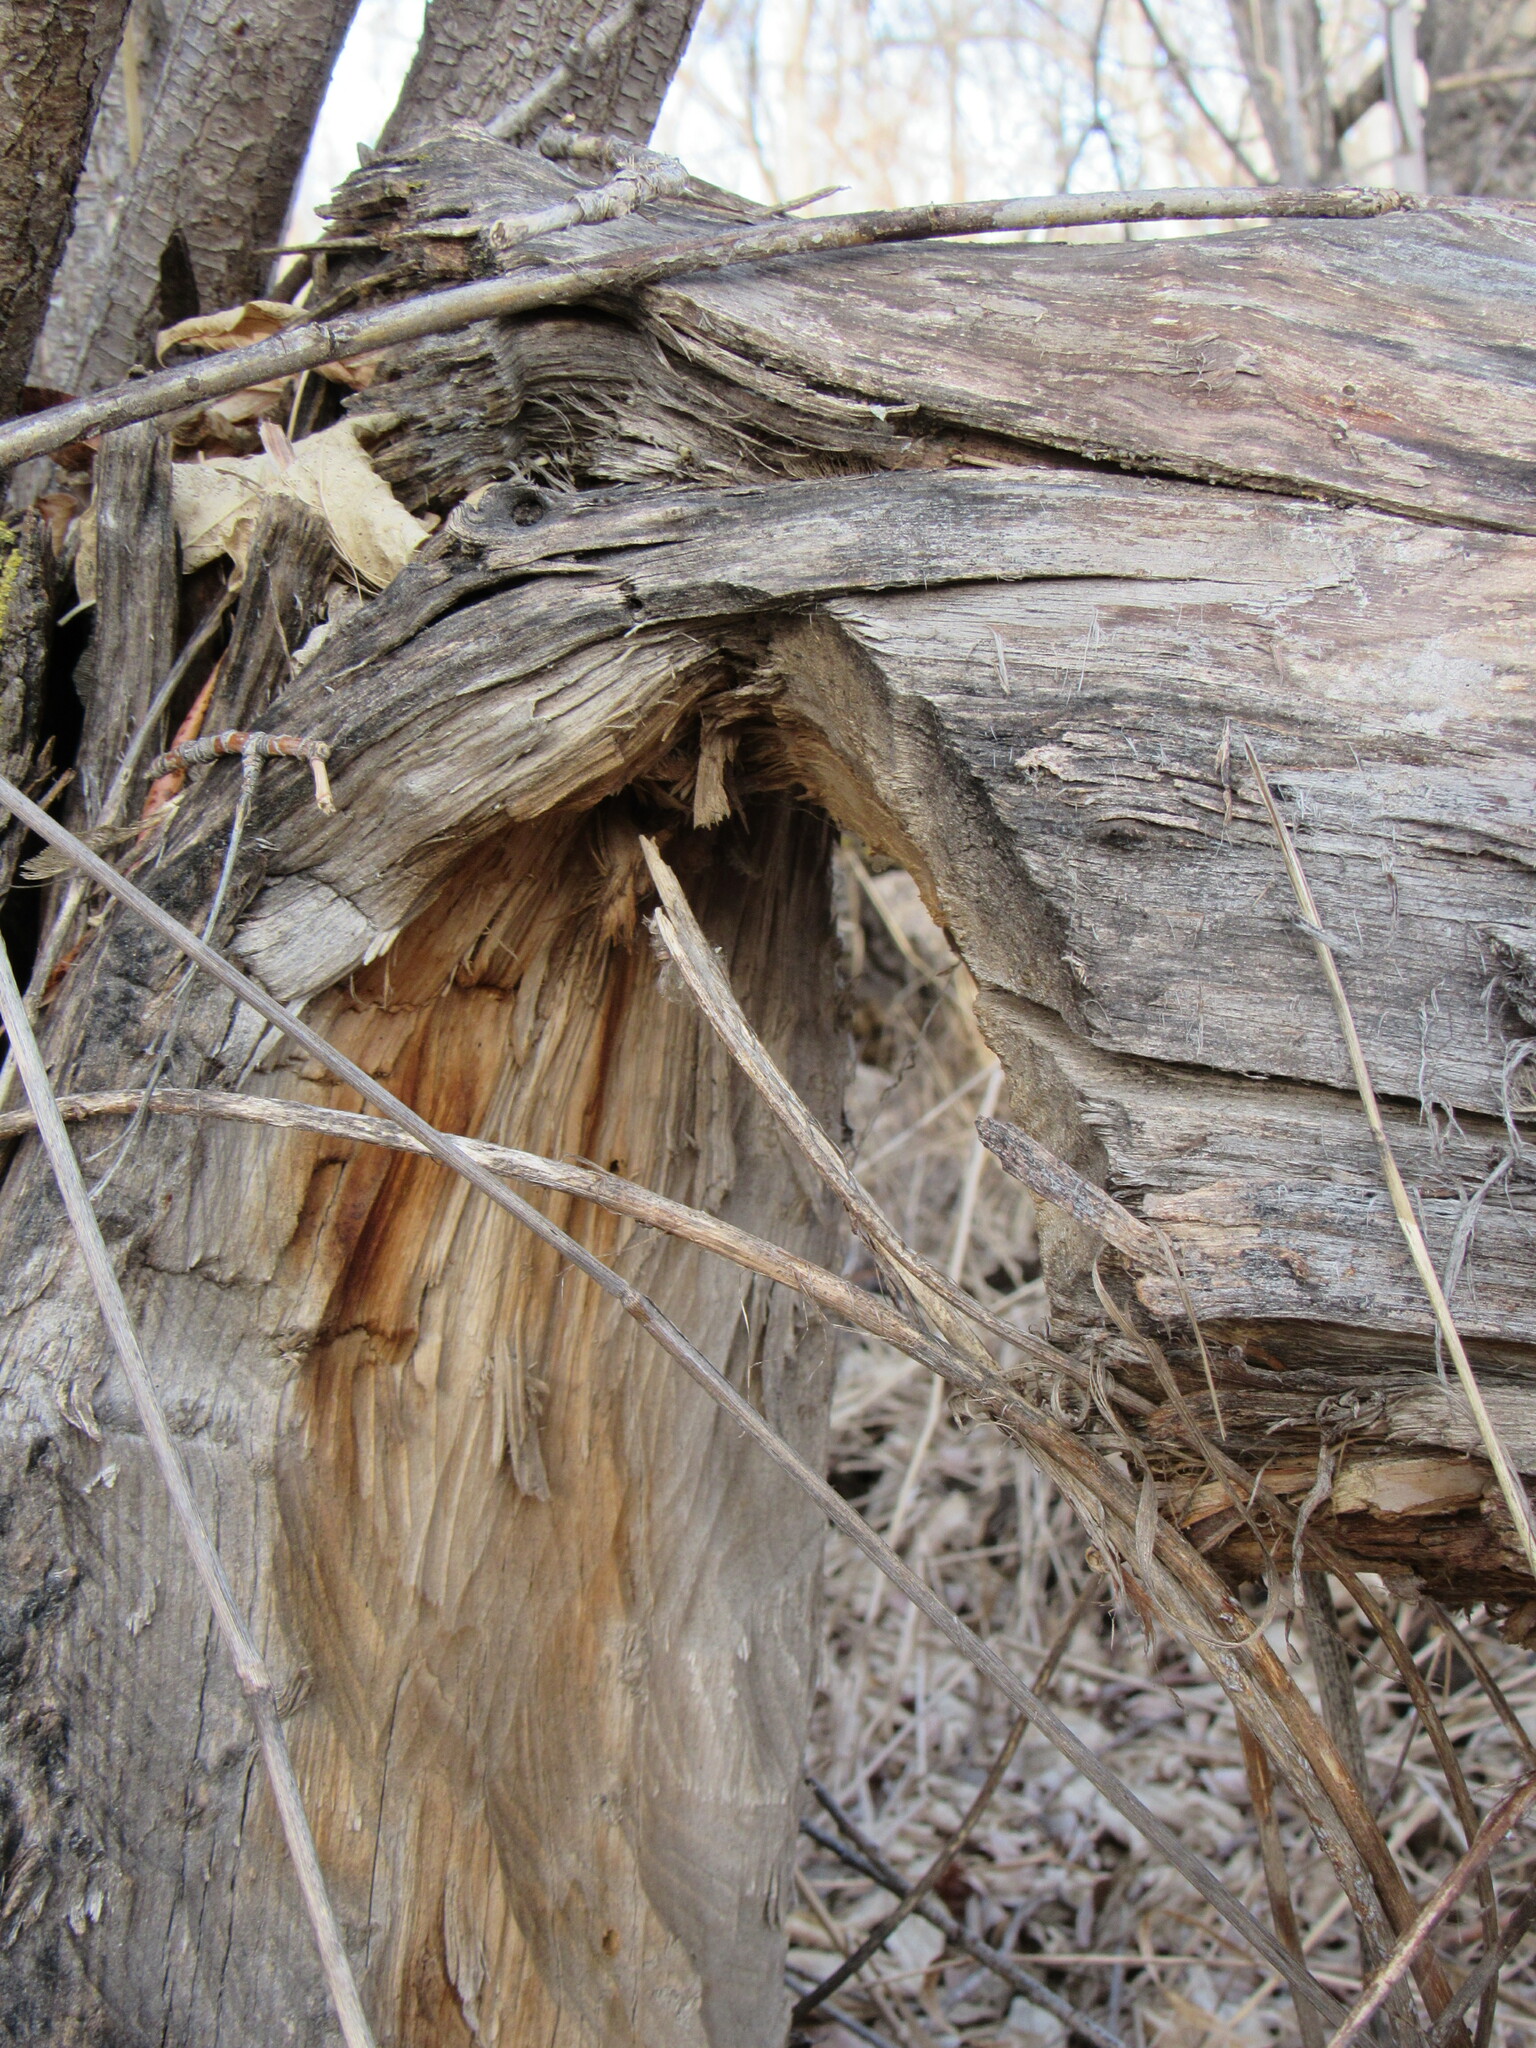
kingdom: Animalia
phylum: Chordata
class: Mammalia
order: Rodentia
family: Castoridae
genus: Castor
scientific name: Castor canadensis
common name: American beaver
